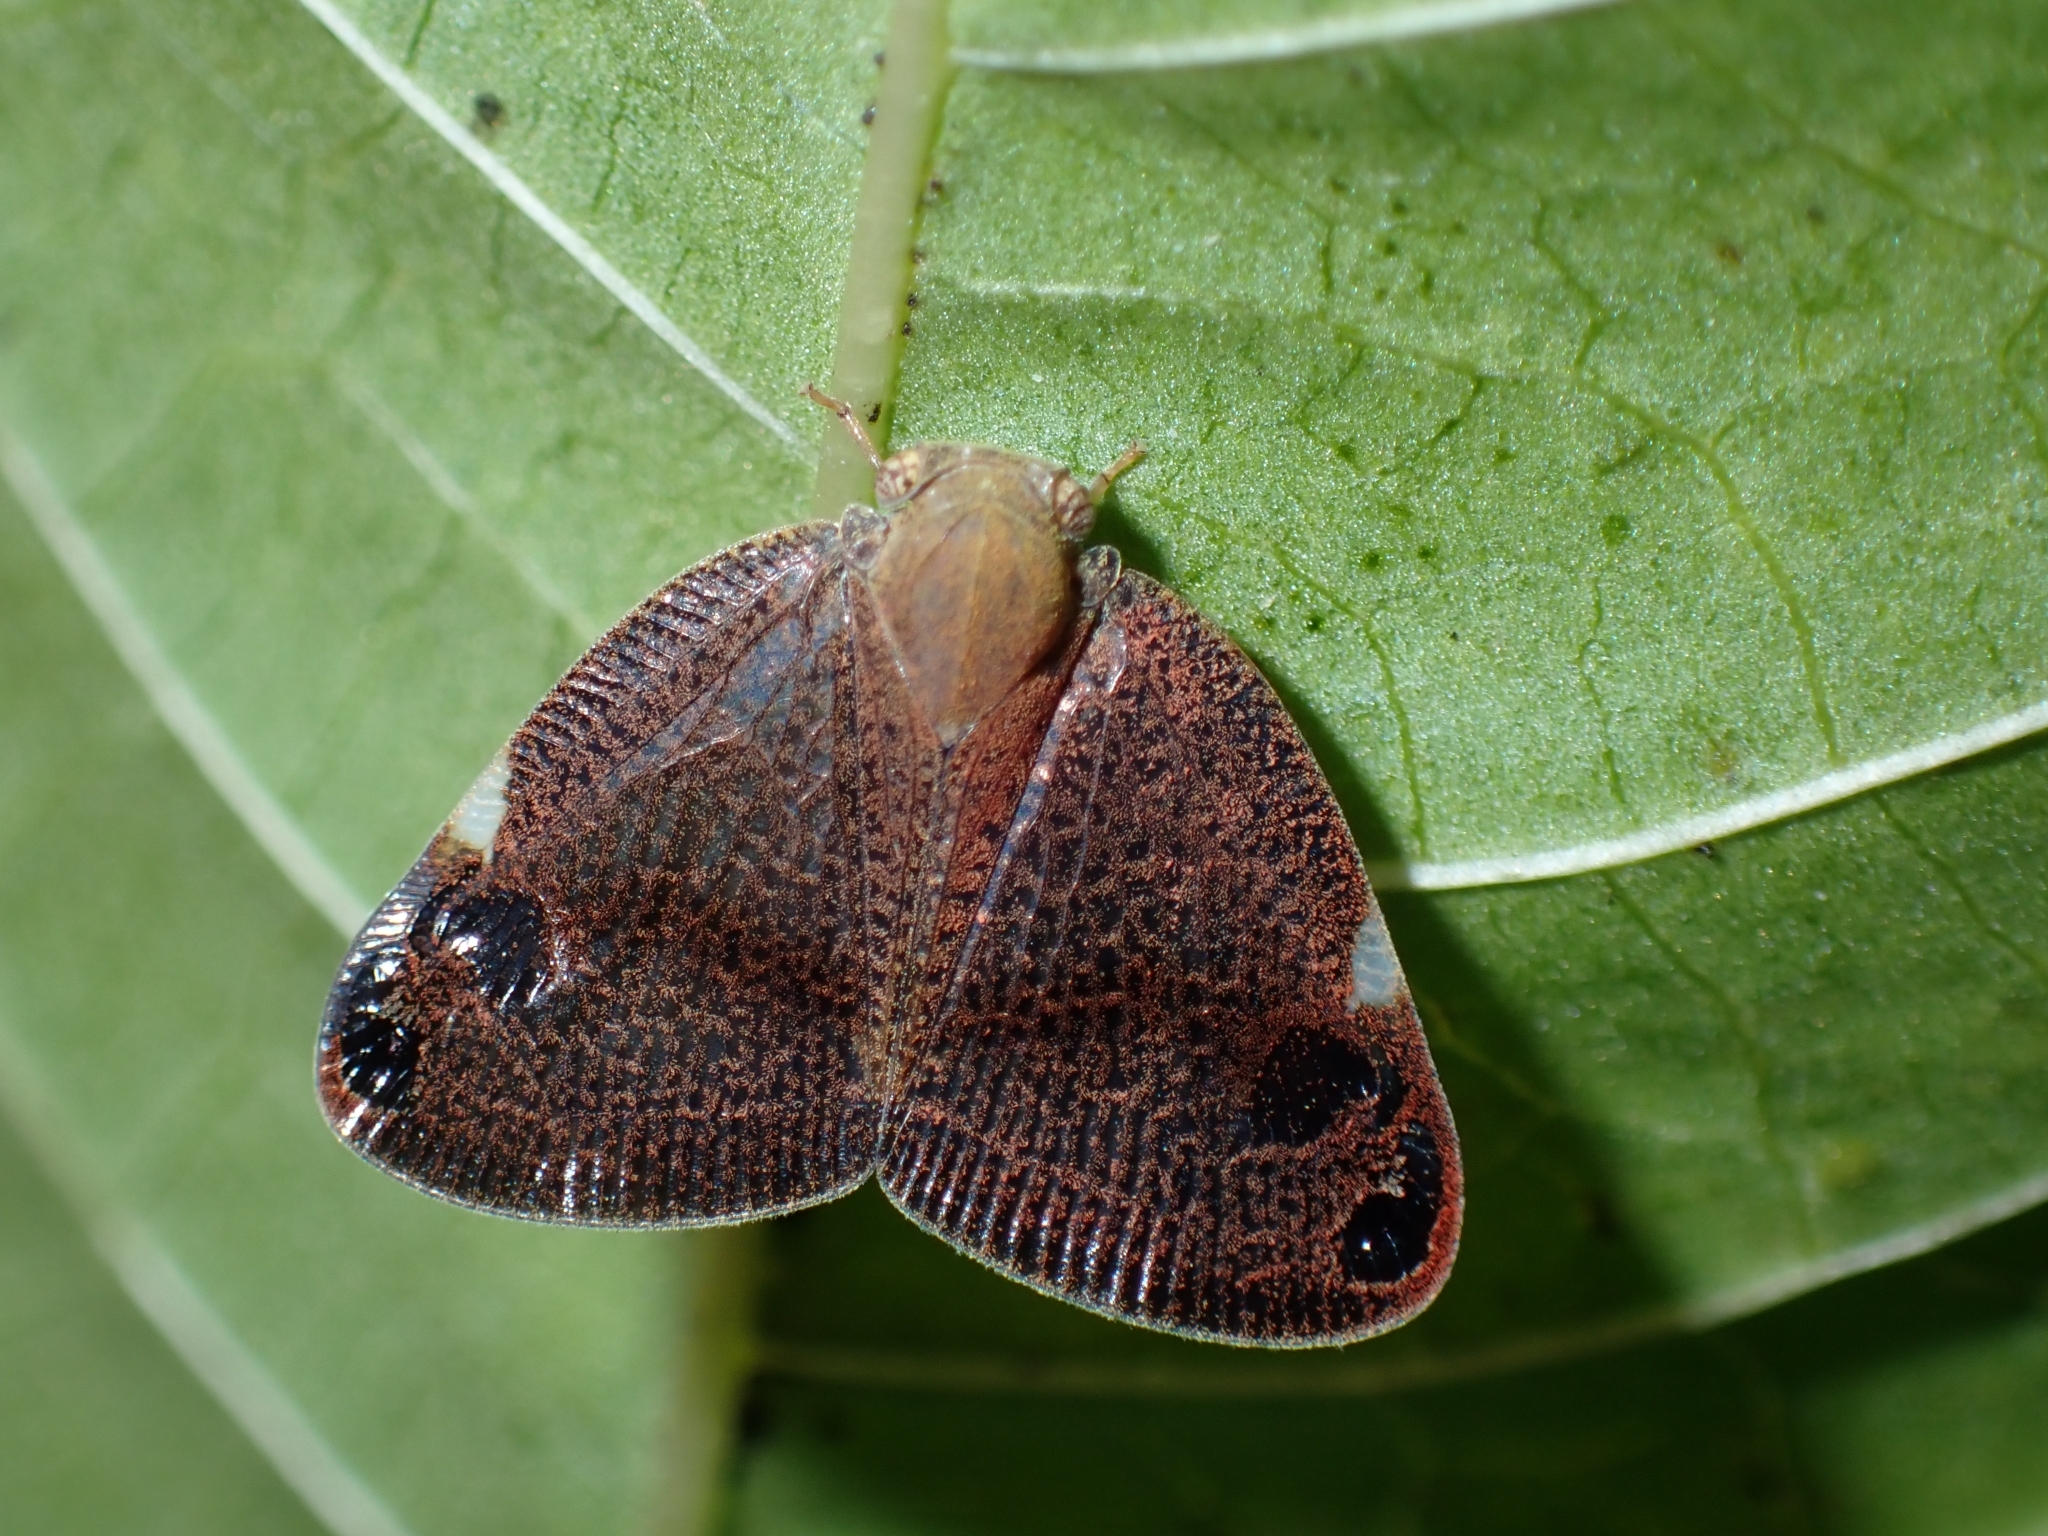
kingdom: Animalia
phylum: Arthropoda
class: Insecta
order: Hemiptera
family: Ricaniidae
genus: Parapiromis
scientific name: Parapiromis translucida
